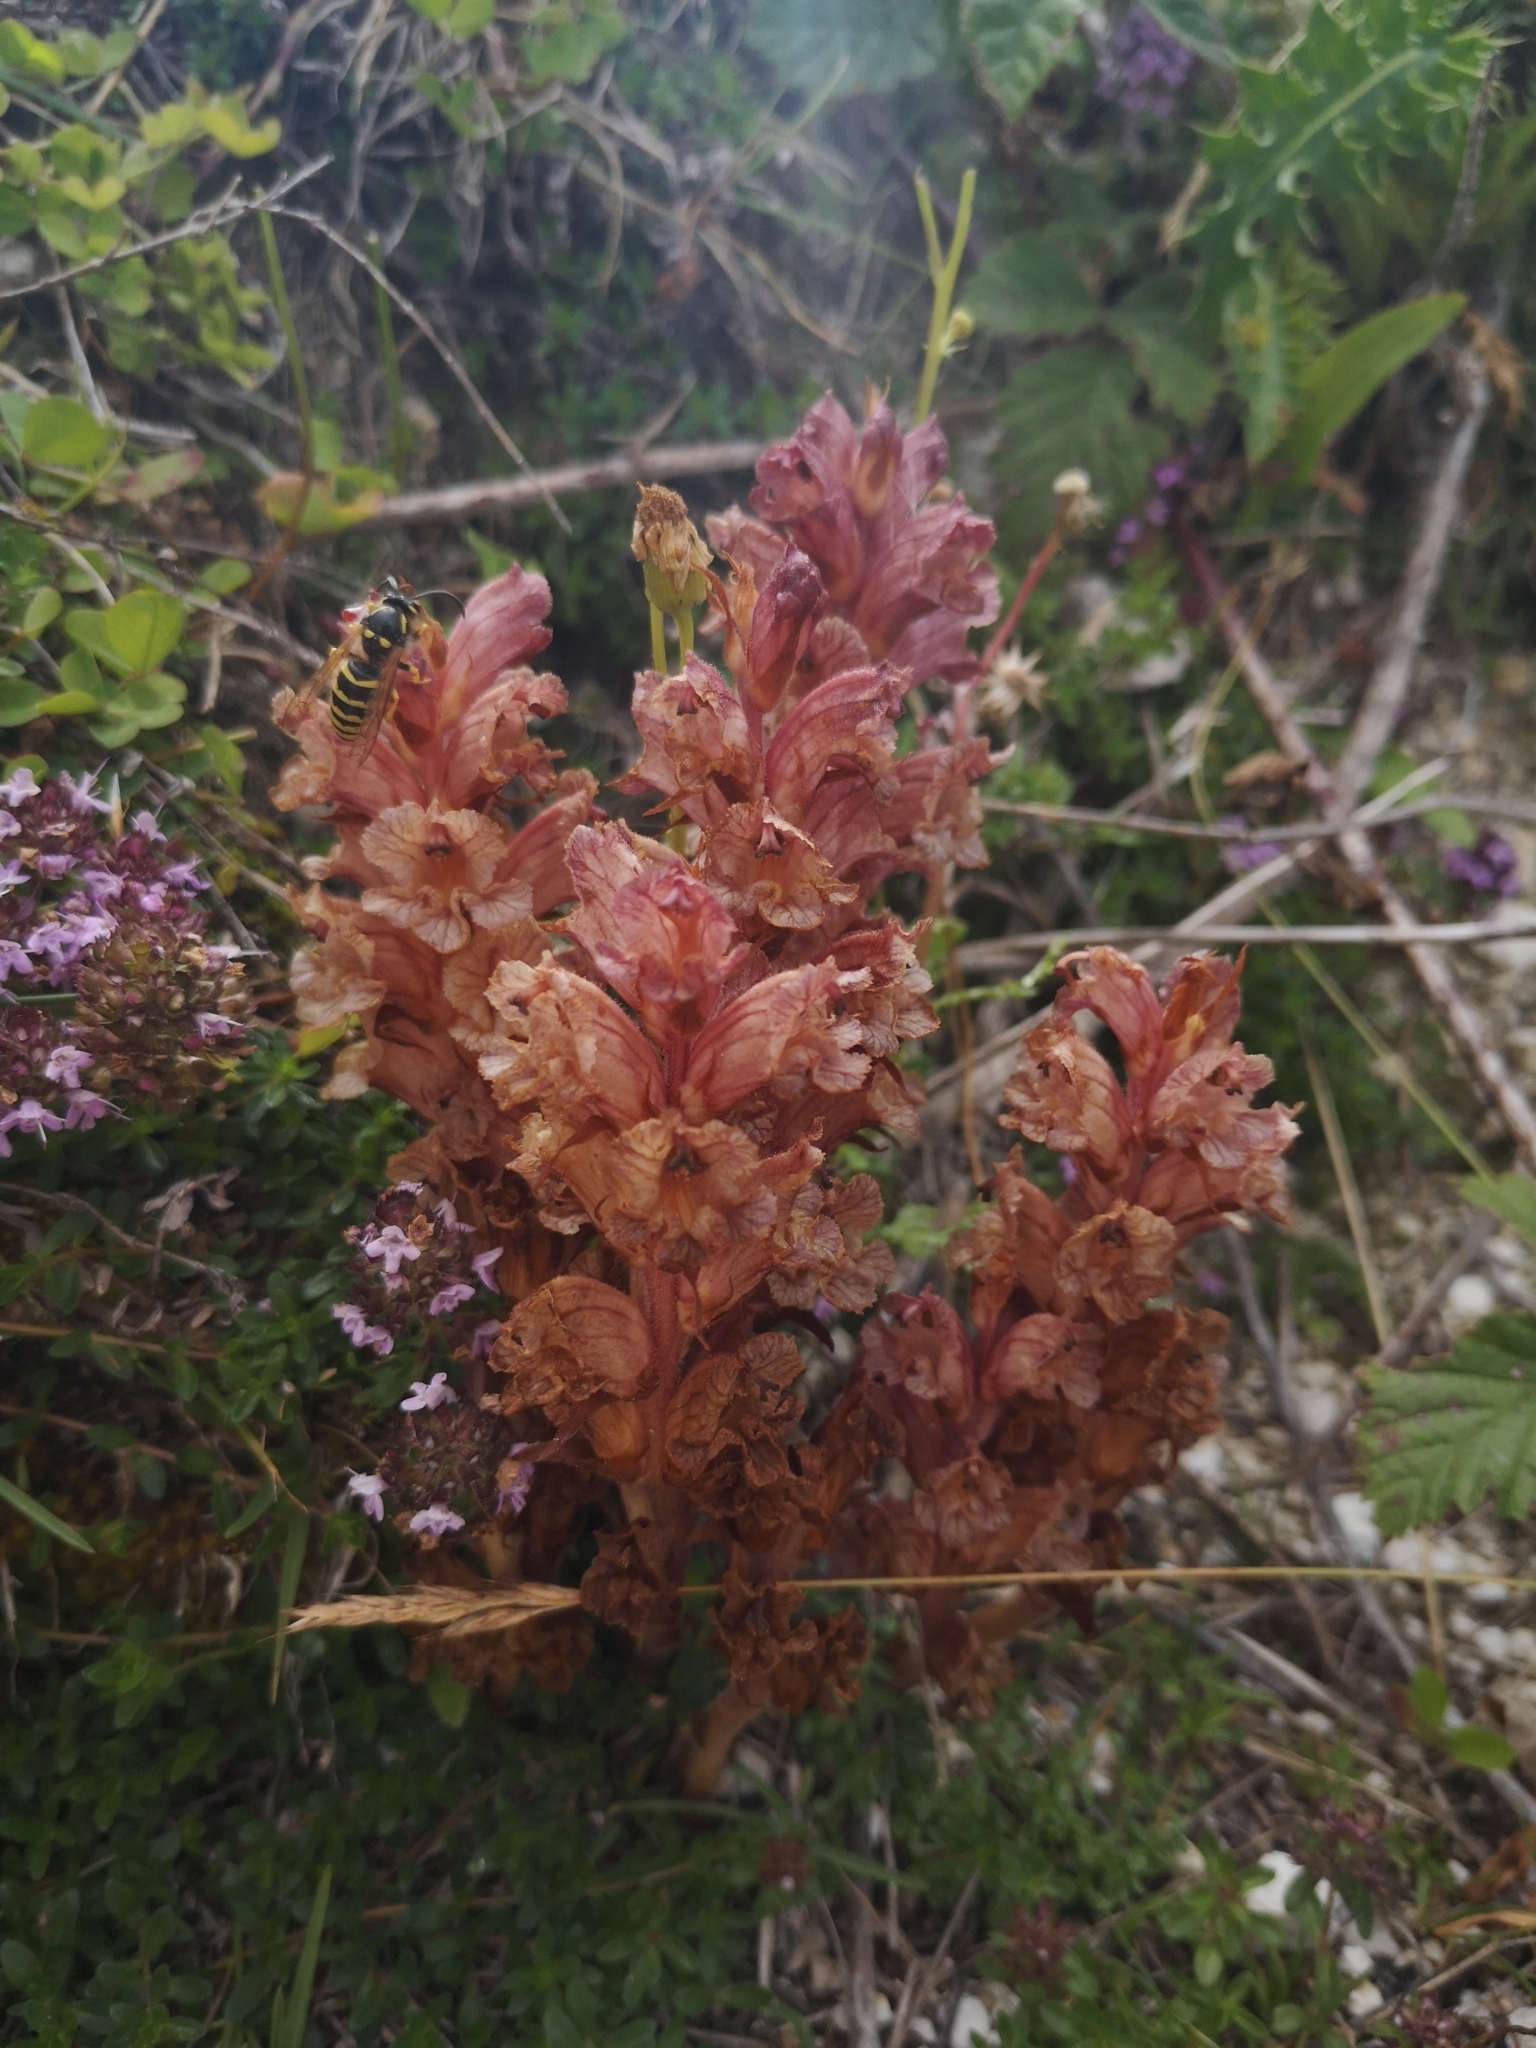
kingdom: Plantae
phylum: Tracheophyta
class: Magnoliopsida
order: Lamiales
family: Orobanchaceae
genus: Orobanche
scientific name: Orobanche alba
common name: Thyme broomrape
